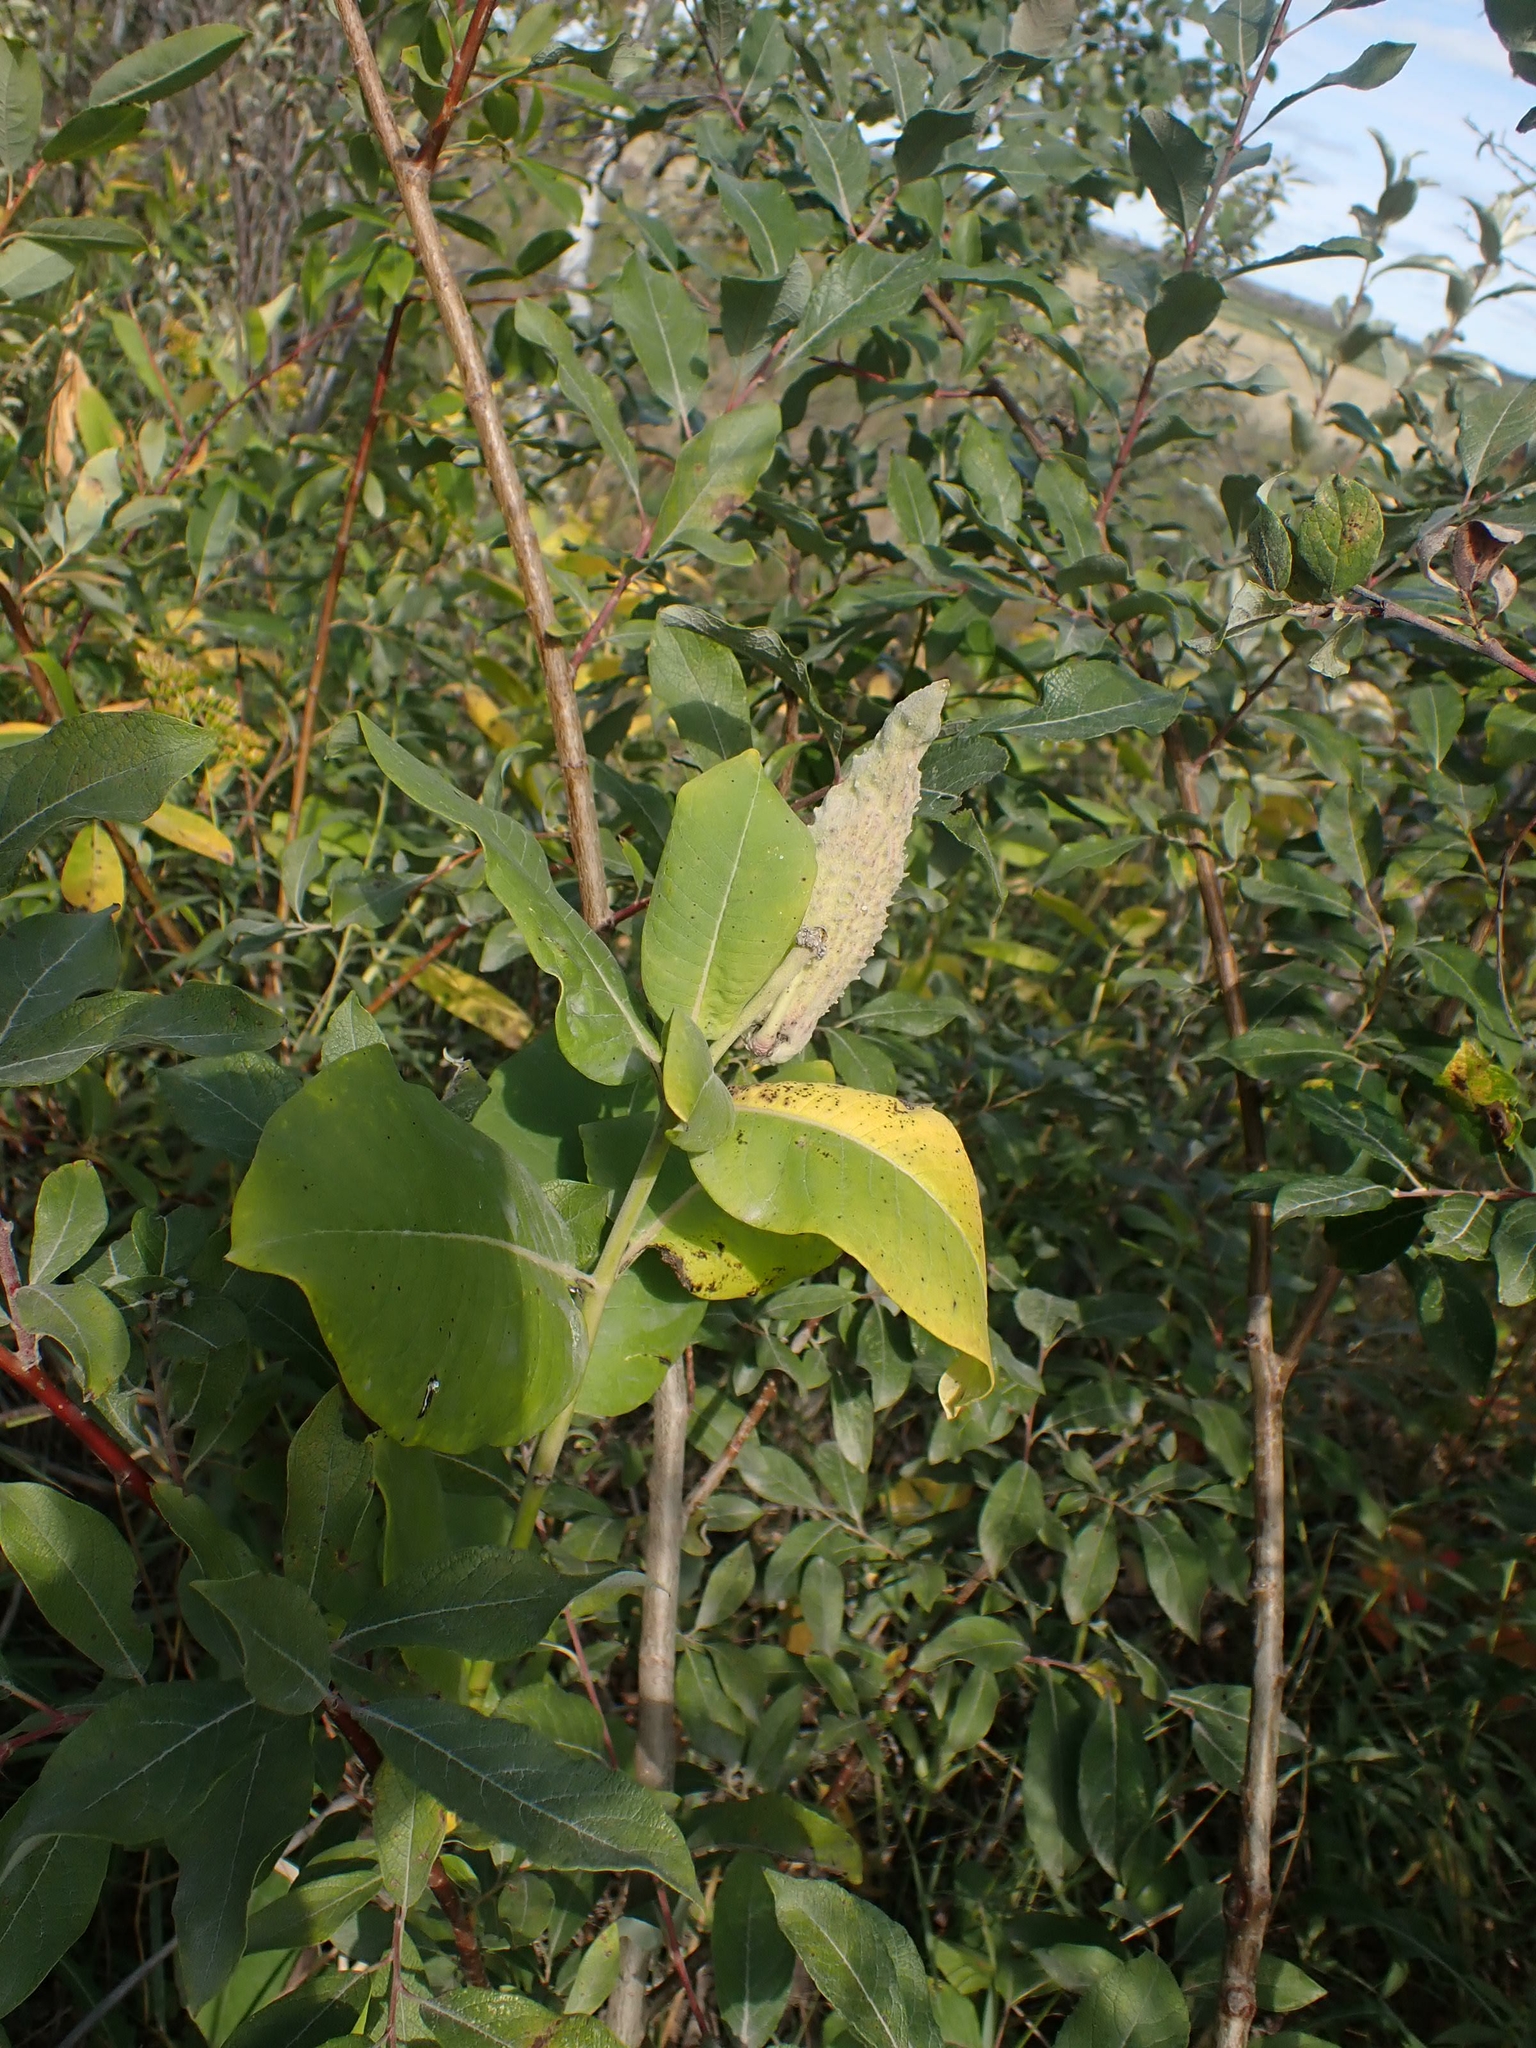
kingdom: Plantae
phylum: Tracheophyta
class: Magnoliopsida
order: Gentianales
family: Apocynaceae
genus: Asclepias
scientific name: Asclepias syriaca
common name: Common milkweed
